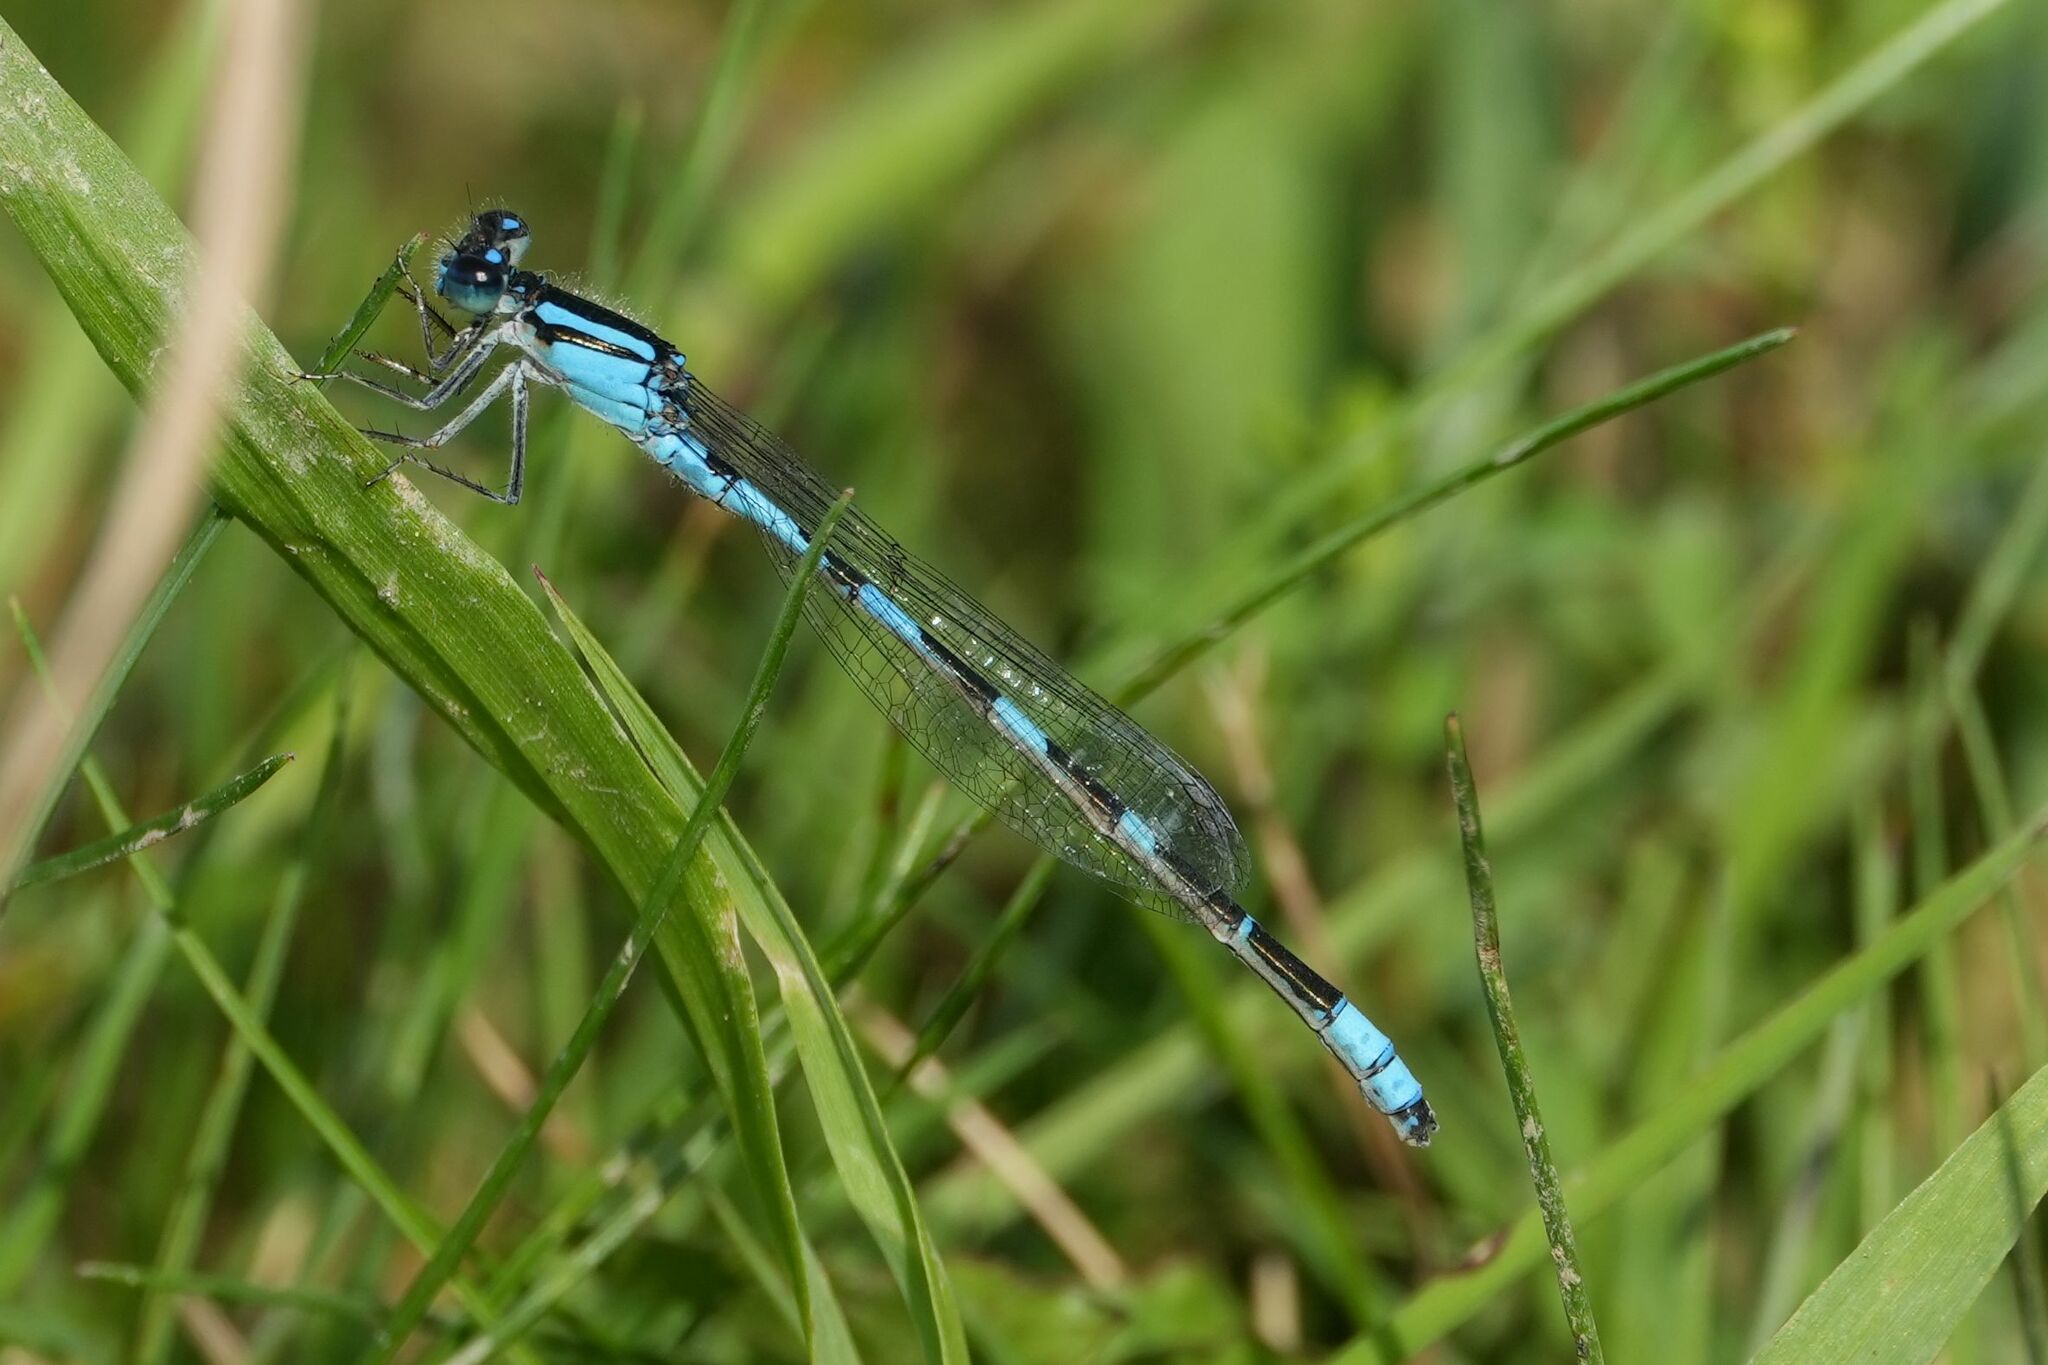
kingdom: Animalia
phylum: Arthropoda
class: Insecta
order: Odonata
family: Coenagrionidae
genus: Enallagma
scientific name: Enallagma carunculatum
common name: Tule bluet
